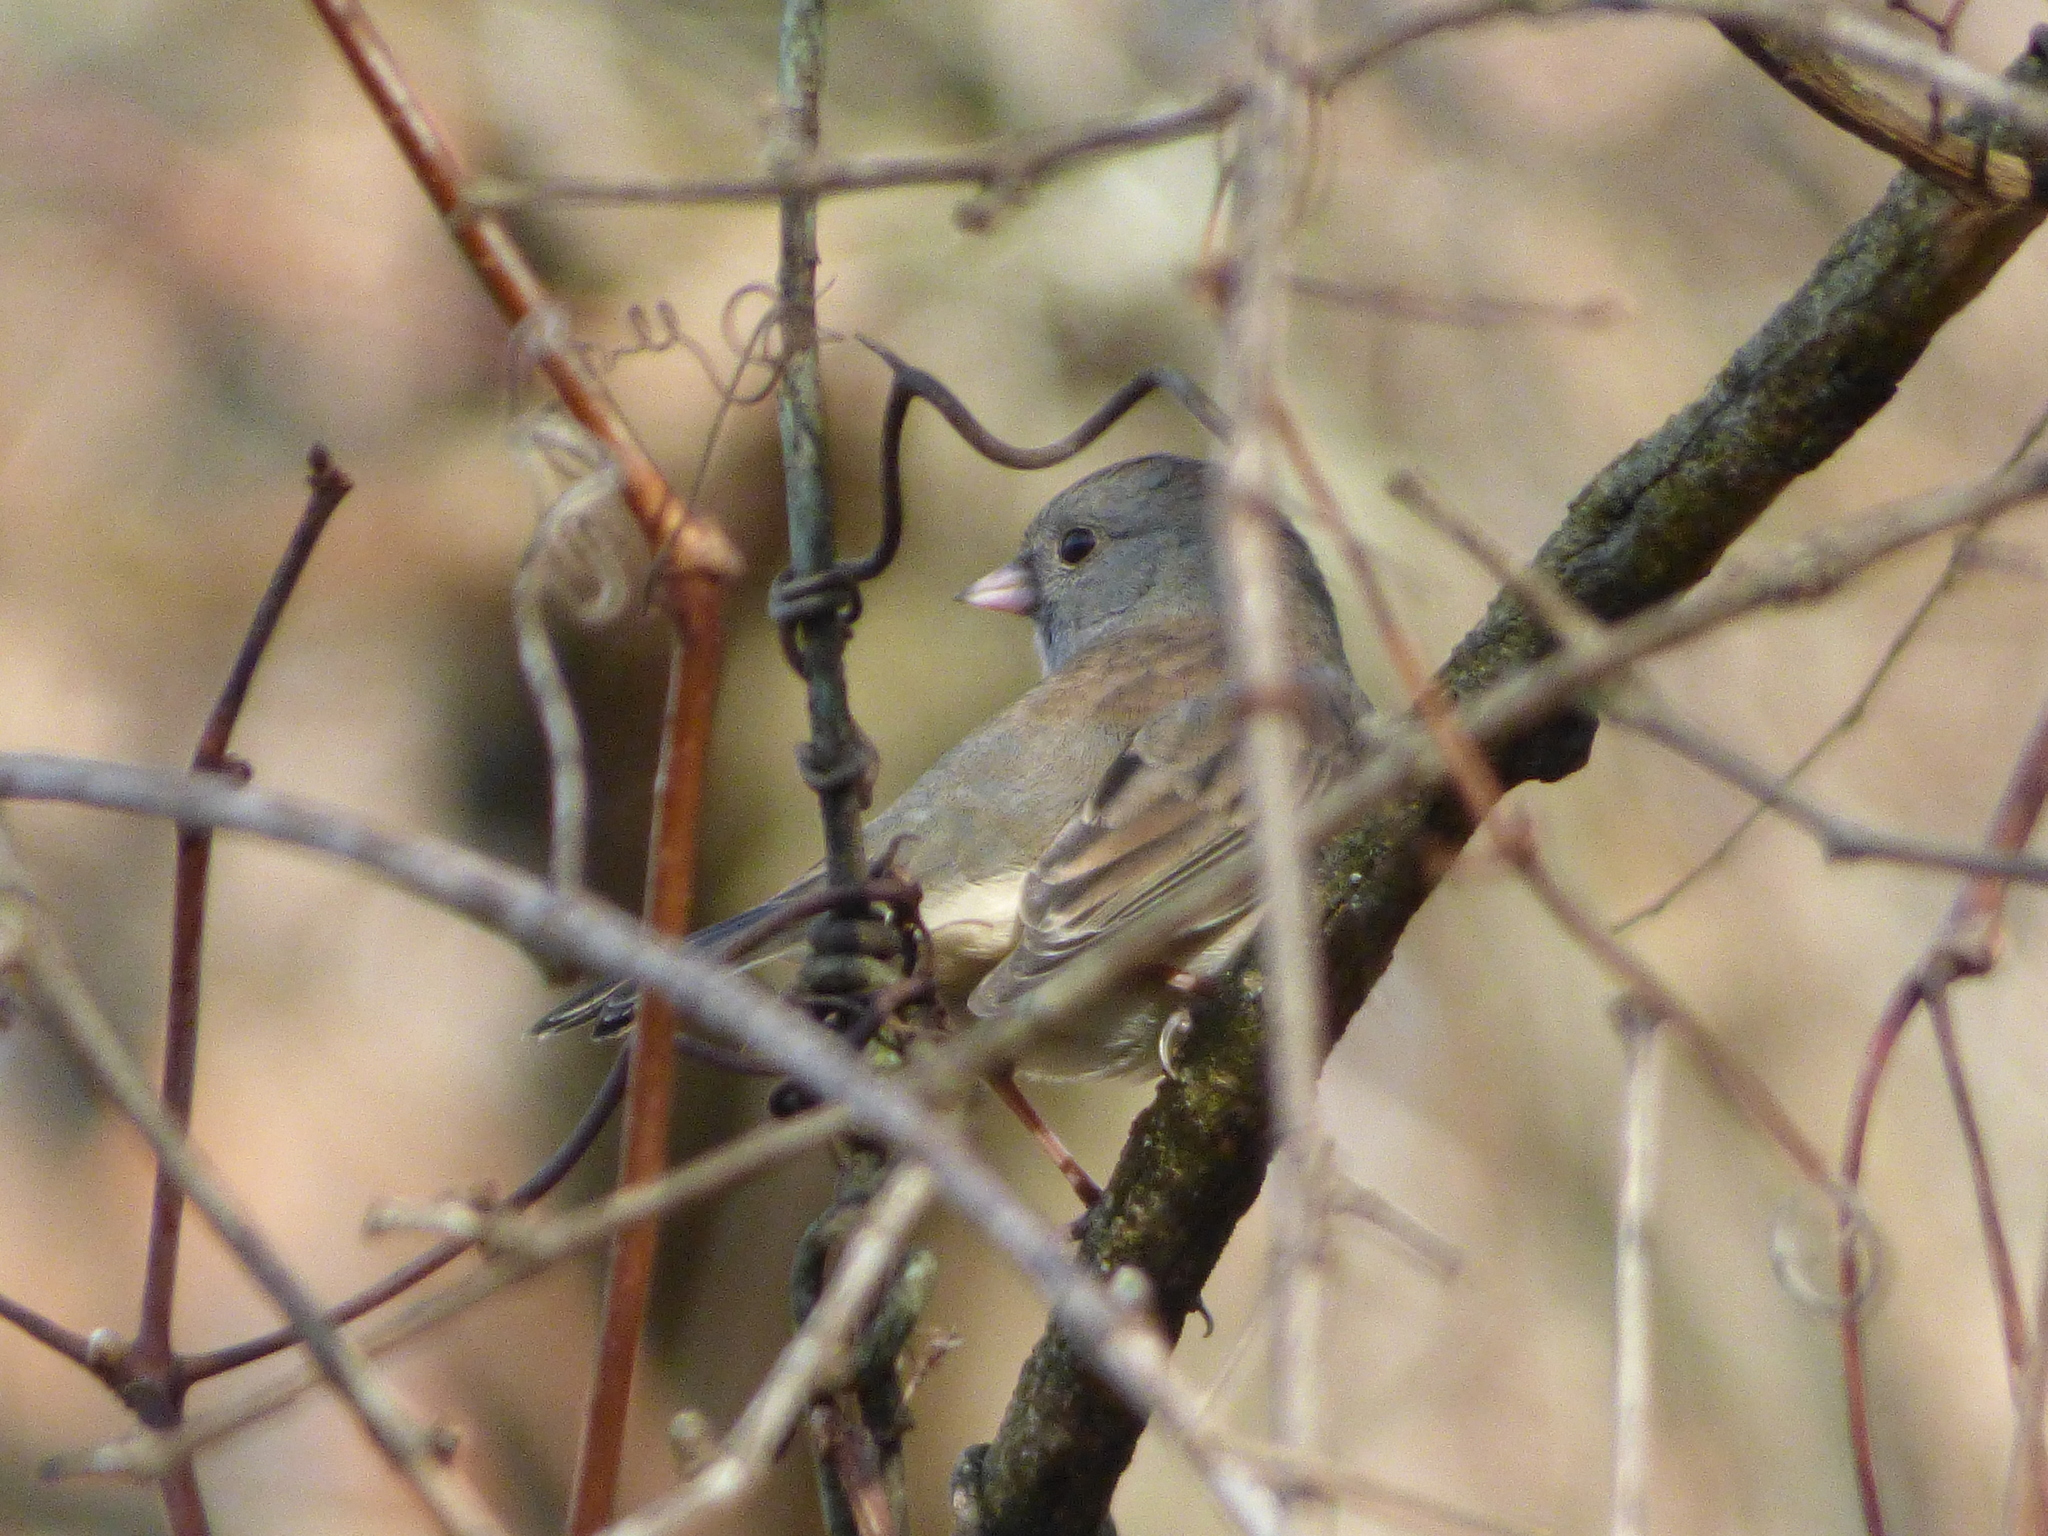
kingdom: Animalia
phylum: Chordata
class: Aves
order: Passeriformes
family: Passerellidae
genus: Junco
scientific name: Junco hyemalis
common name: Dark-eyed junco
